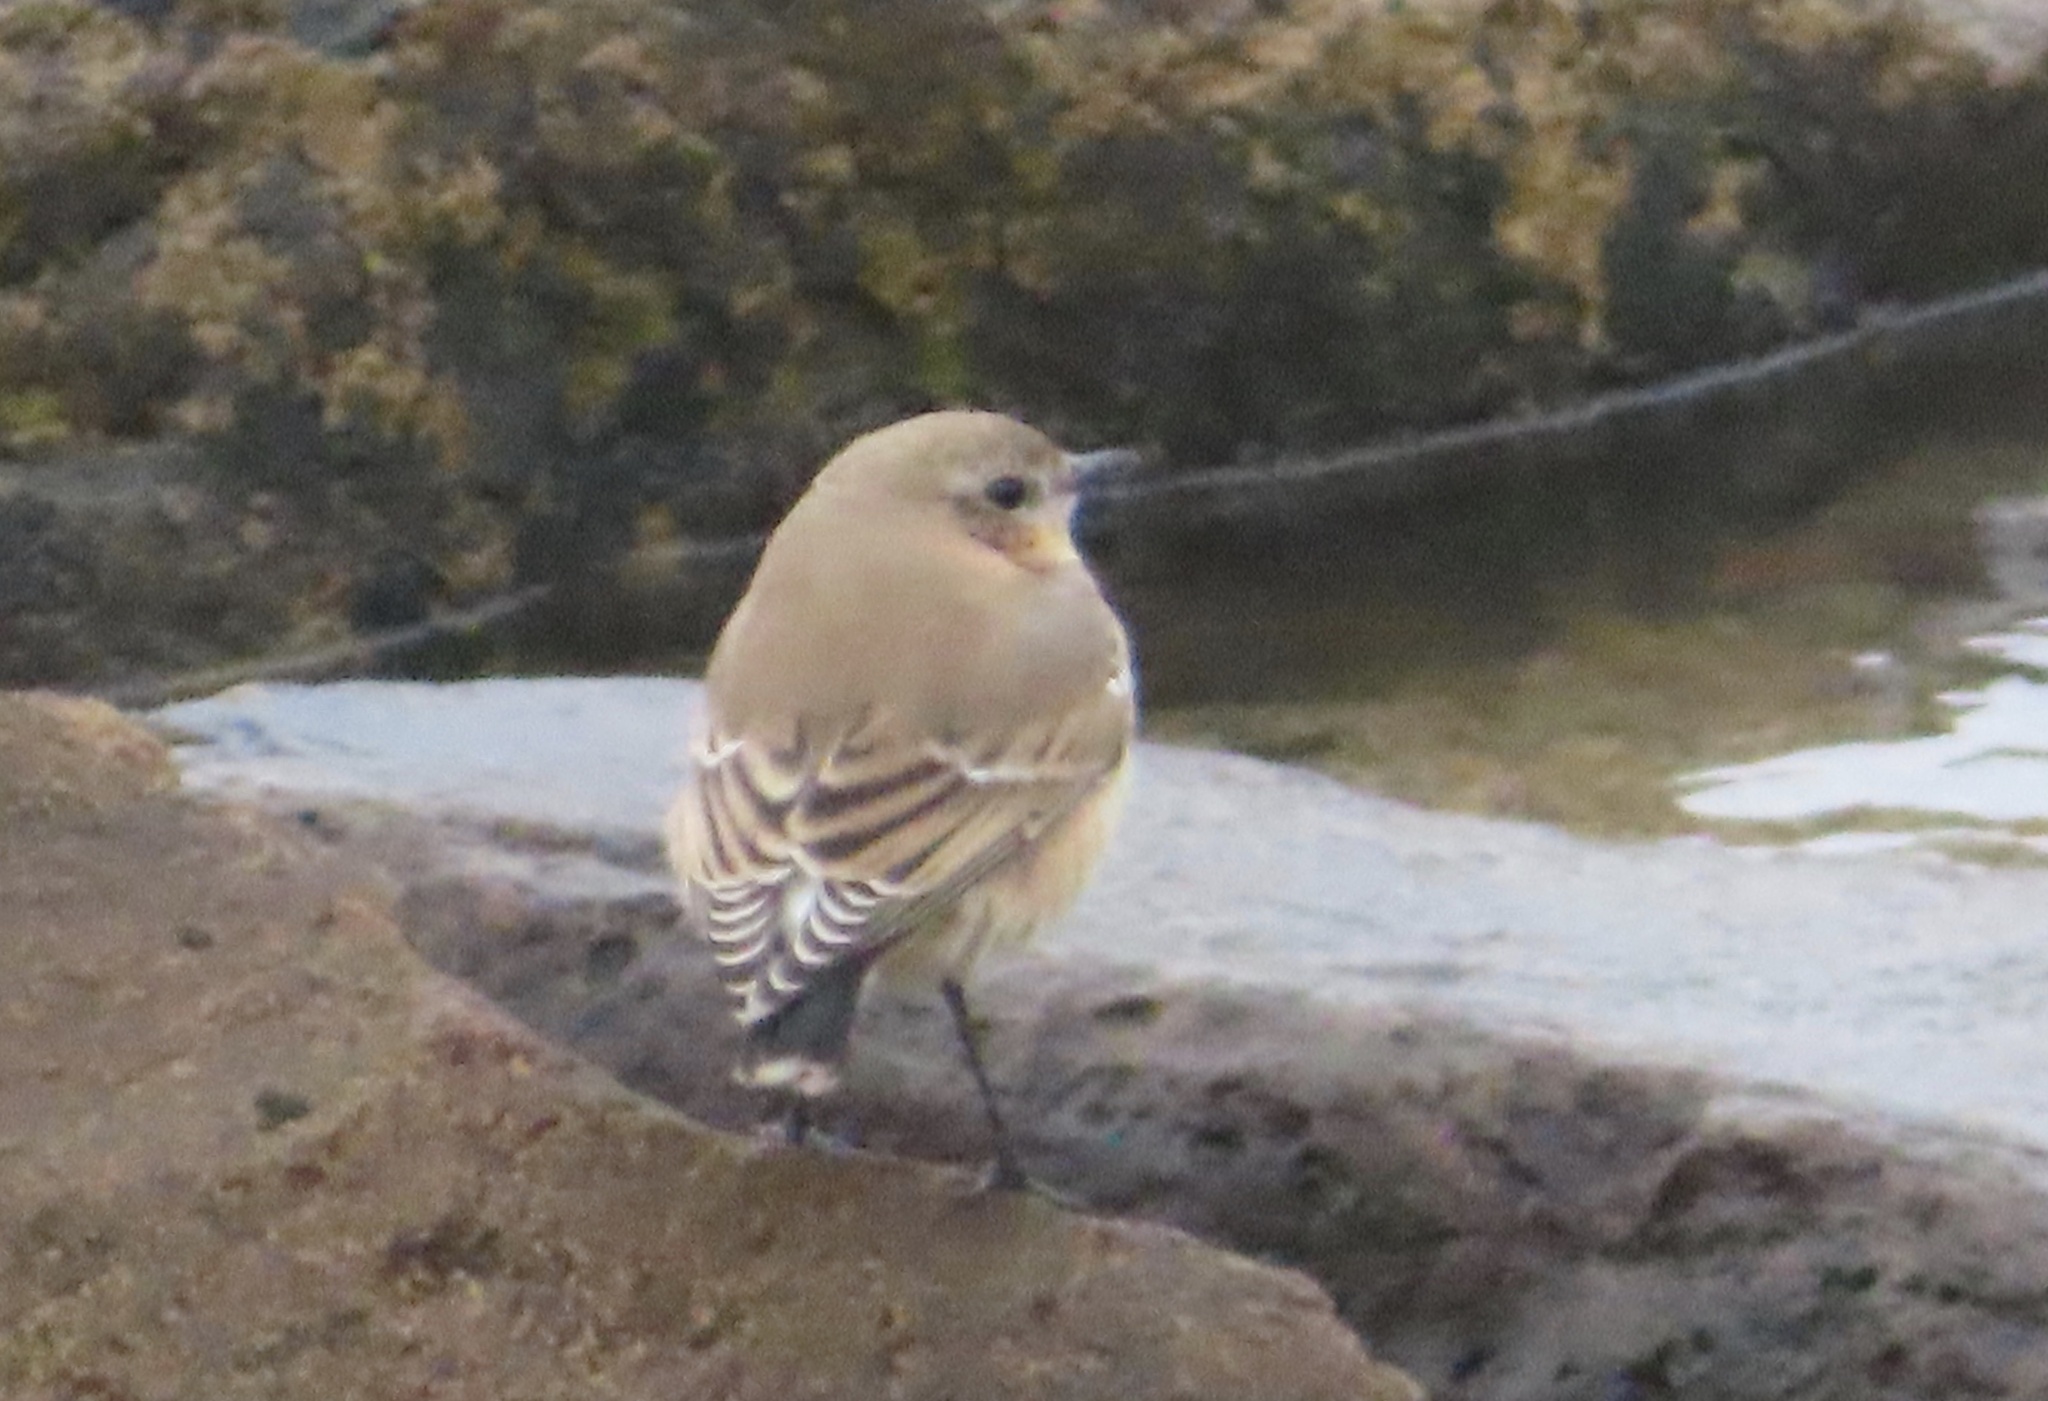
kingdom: Animalia
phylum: Chordata
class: Aves
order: Passeriformes
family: Muscicapidae
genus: Oenanthe
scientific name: Oenanthe oenanthe
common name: Northern wheatear
